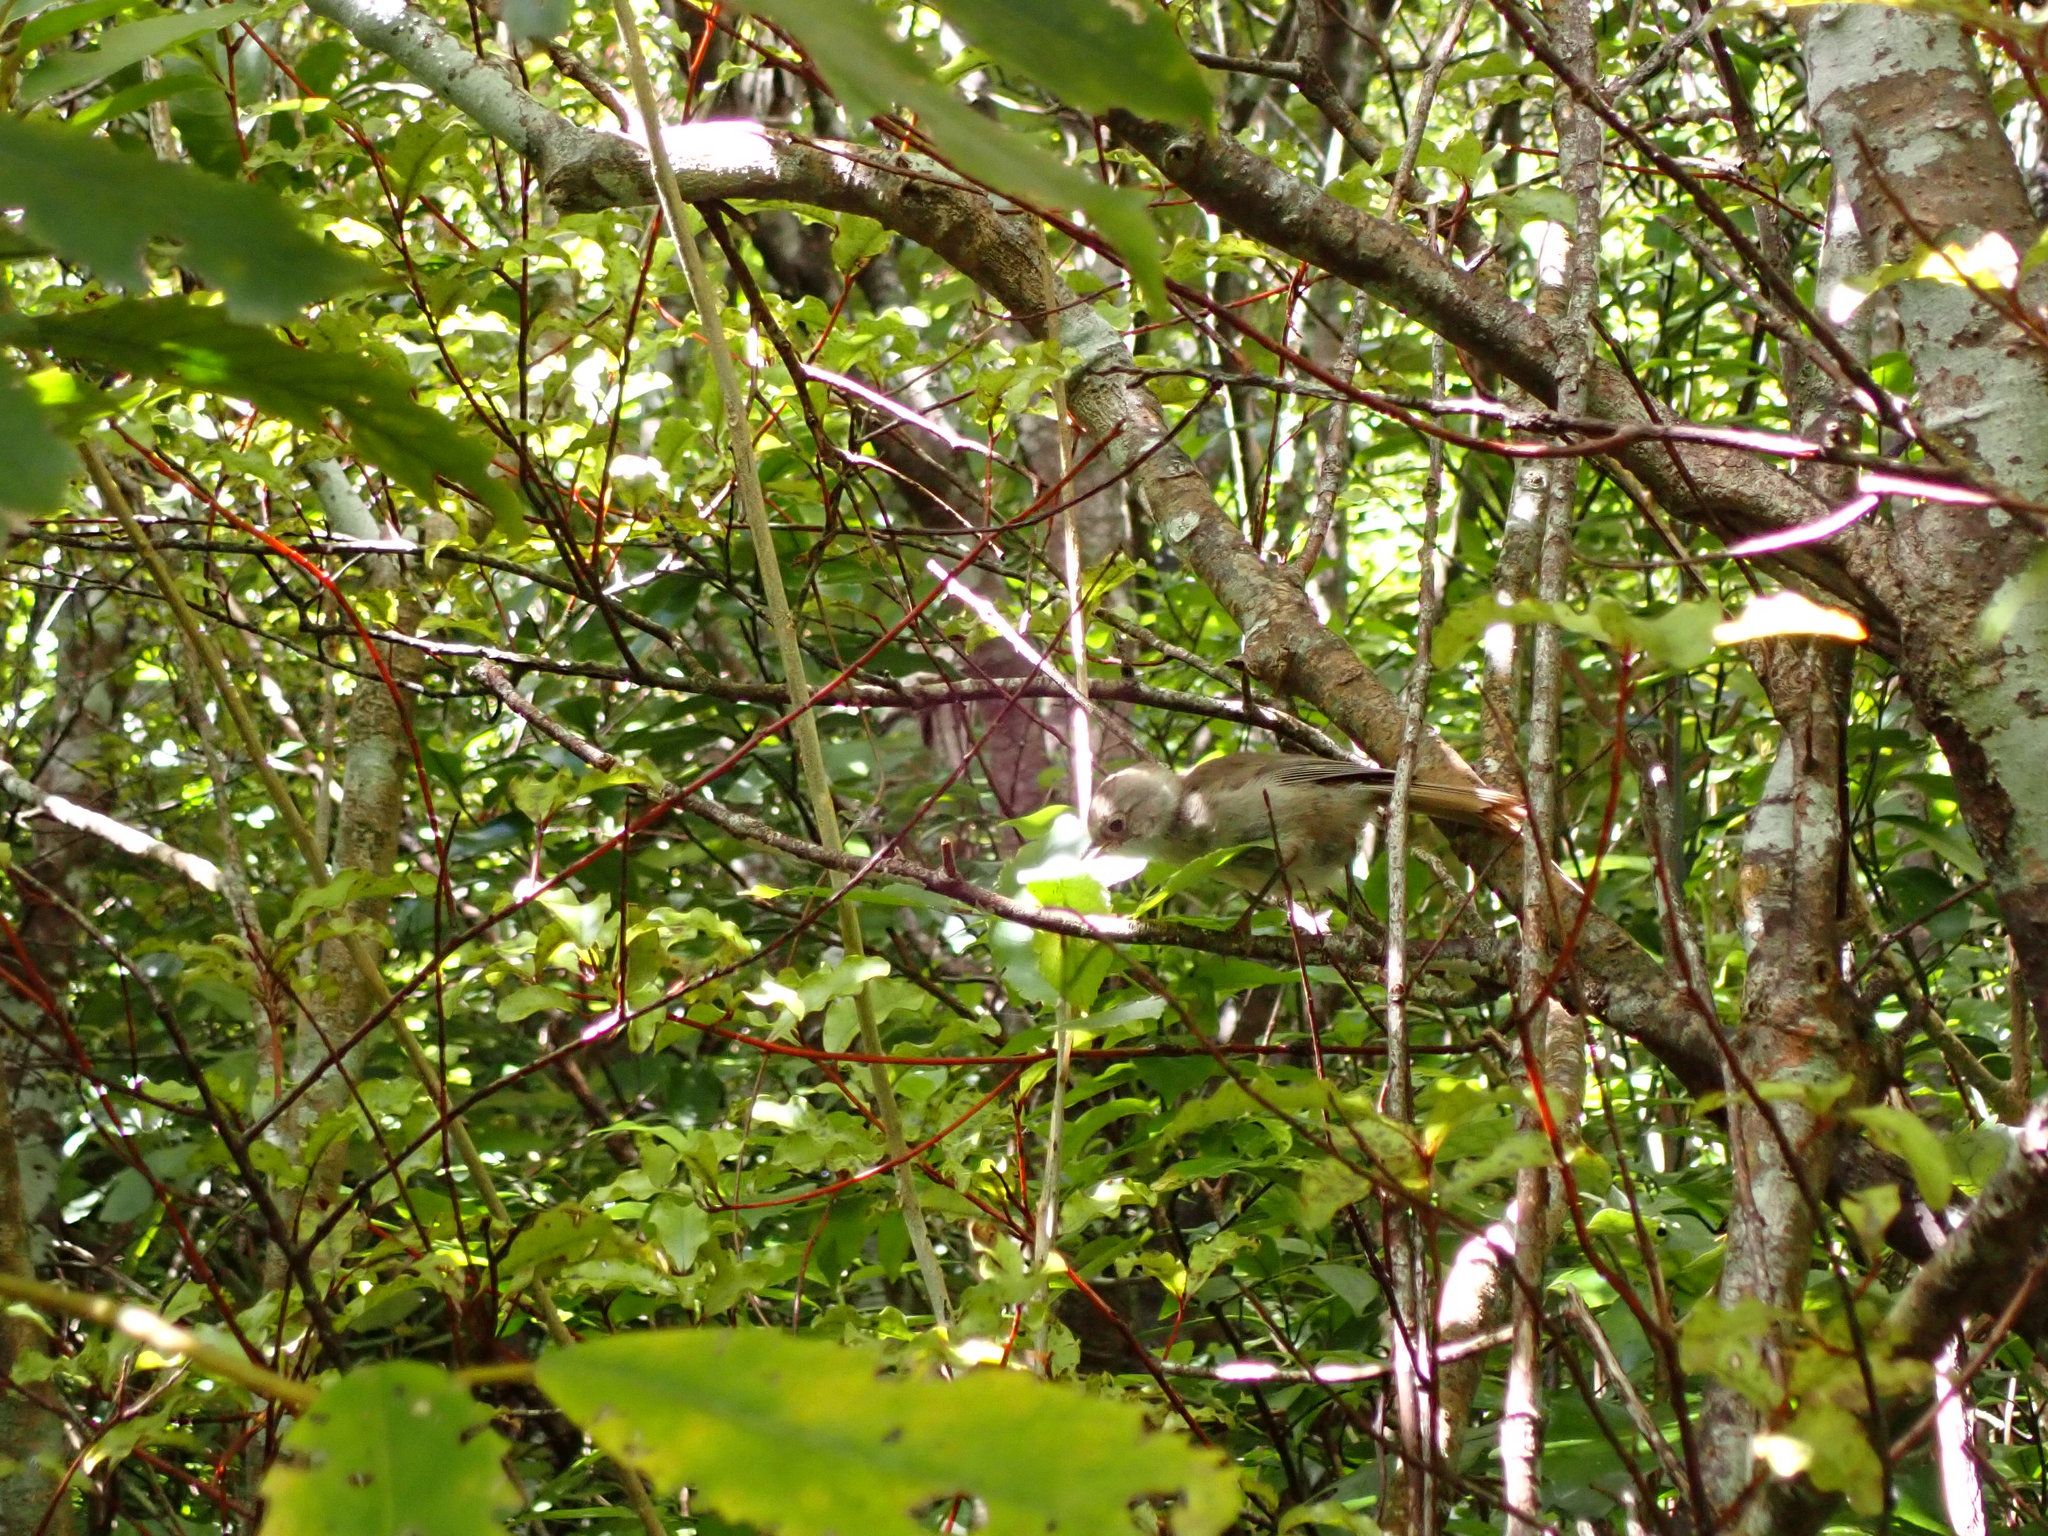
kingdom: Animalia
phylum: Chordata
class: Aves
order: Passeriformes
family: Acanthizidae
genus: Mohoua
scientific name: Mohoua albicilla
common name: Whitehead
